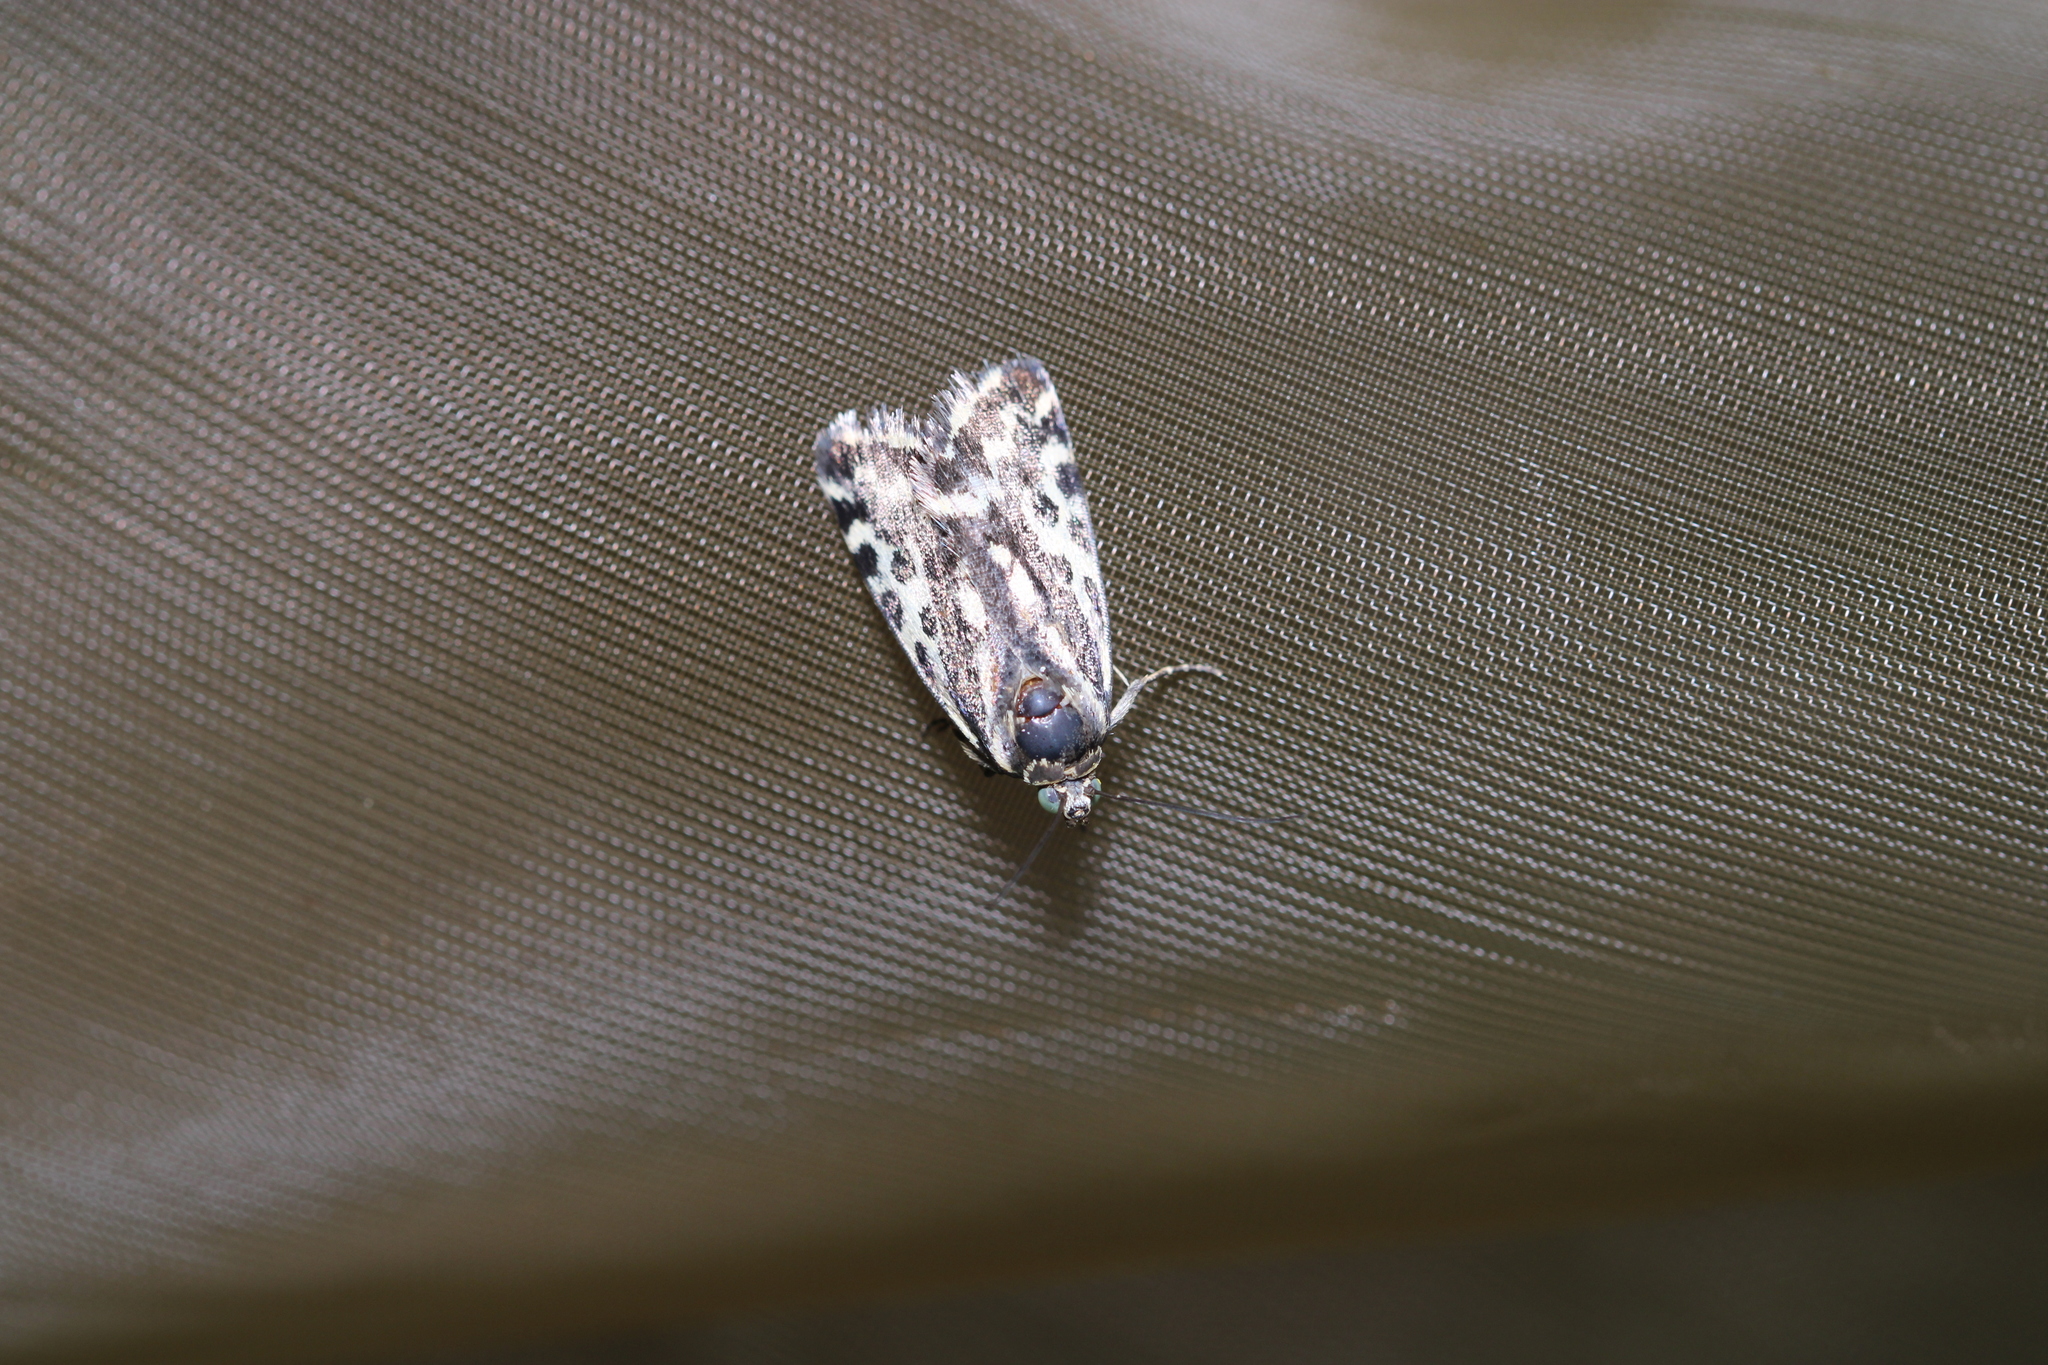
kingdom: Animalia
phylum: Arthropoda
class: Insecta
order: Lepidoptera
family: Noctuidae
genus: Acontia
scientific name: Acontia trabealis
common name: Spotted sulphur
